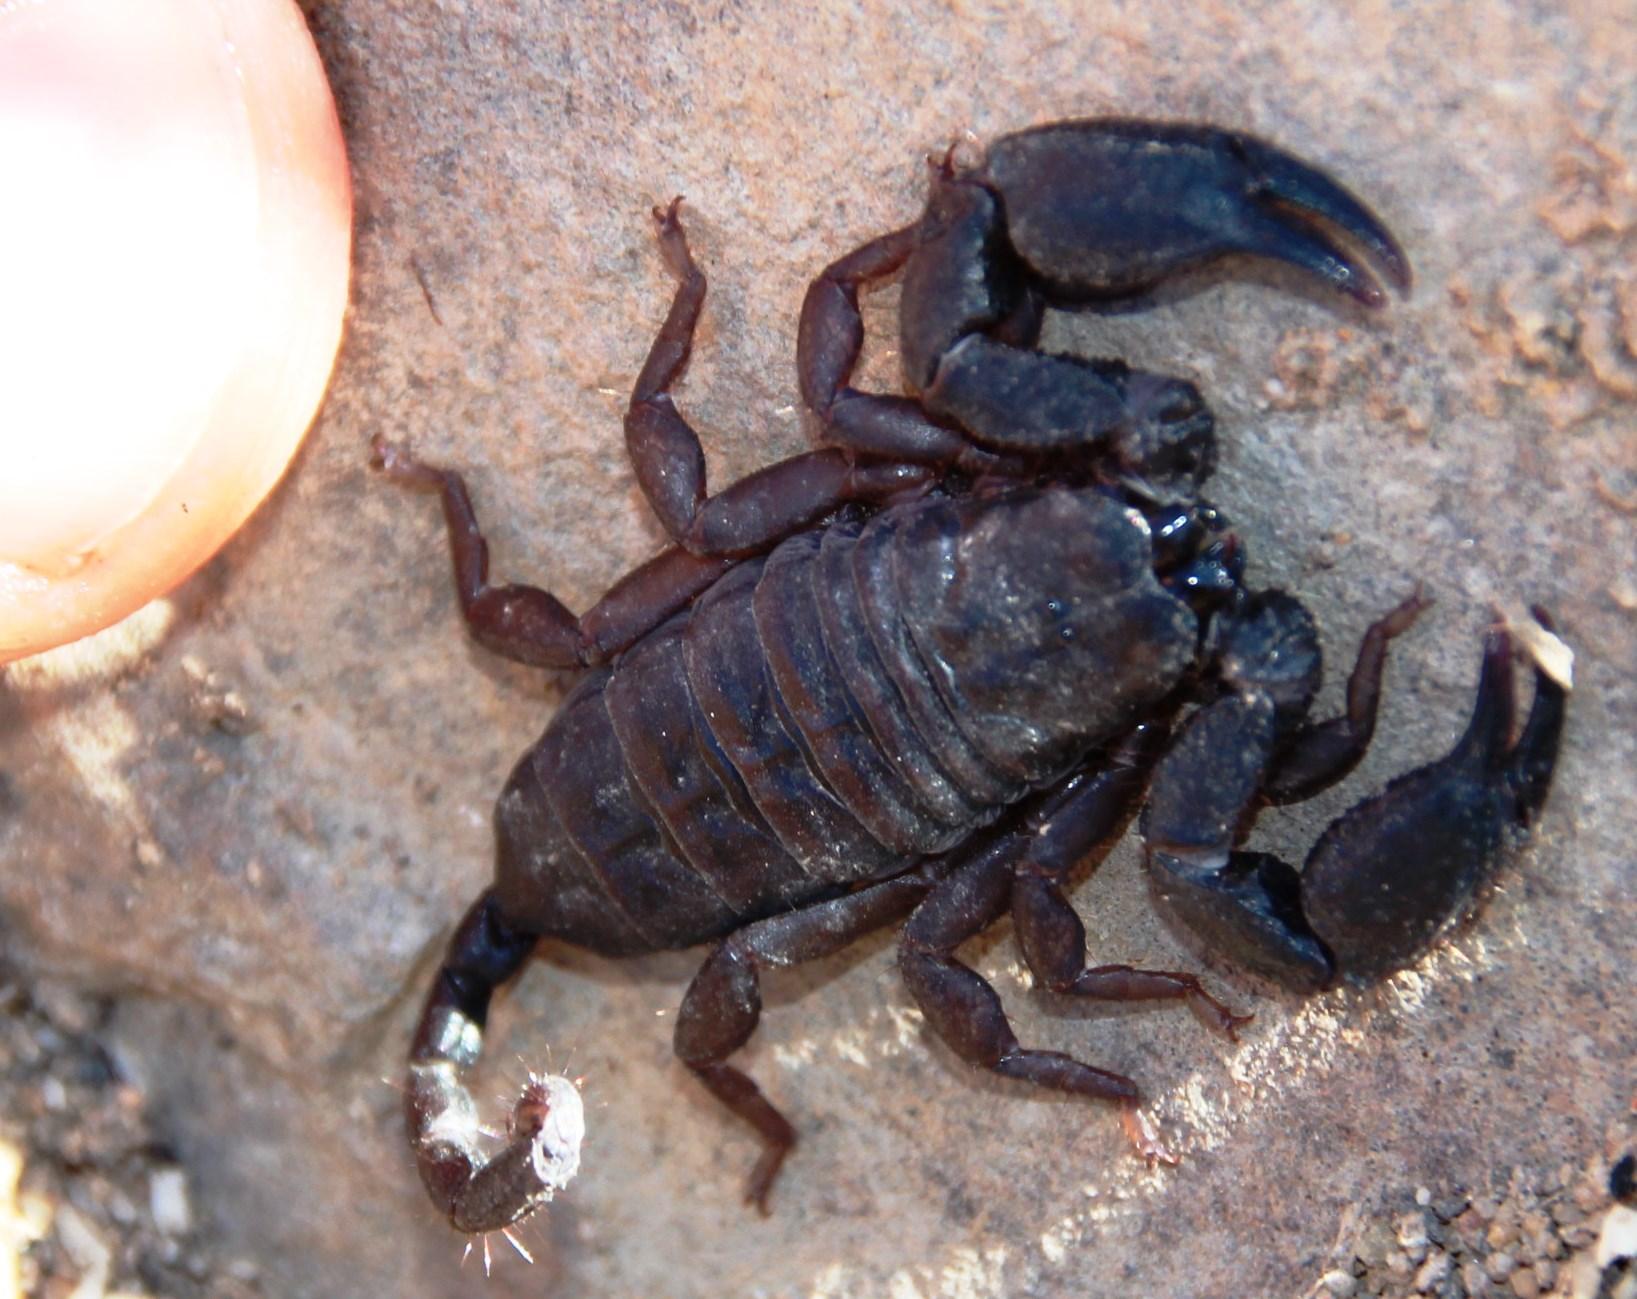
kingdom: Animalia
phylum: Arthropoda
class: Arachnida
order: Scorpiones
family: Hormuridae
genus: Opisthacanthus
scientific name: Opisthacanthus capensis
